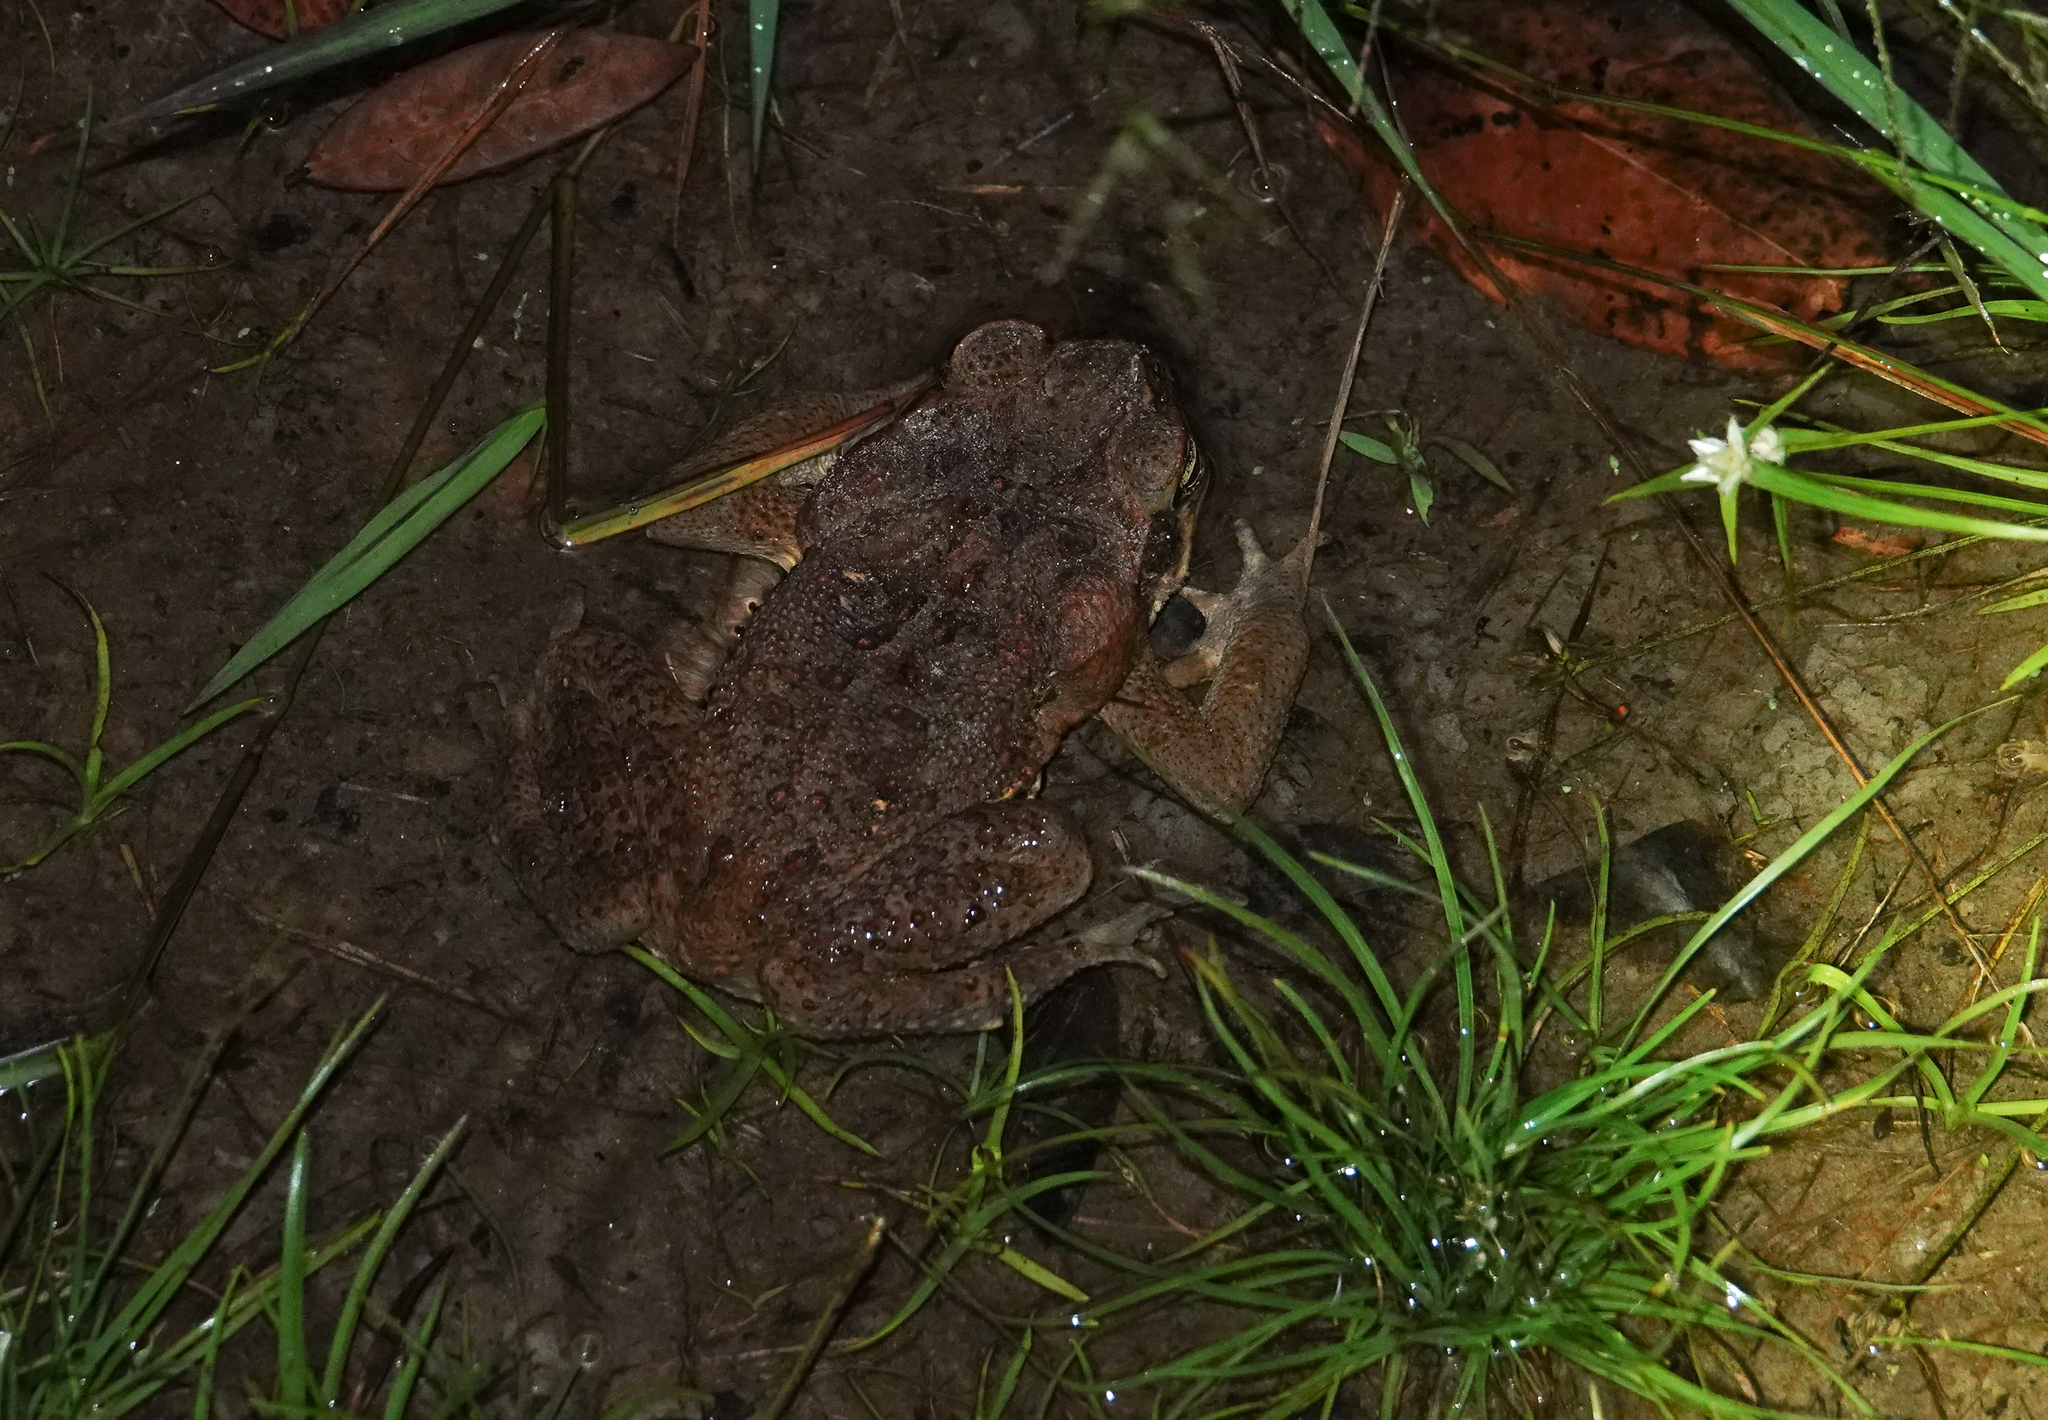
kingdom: Animalia
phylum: Chordata
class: Amphibia
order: Anura
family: Bufonidae
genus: Rhinella
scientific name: Rhinella marina
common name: Cane toad
